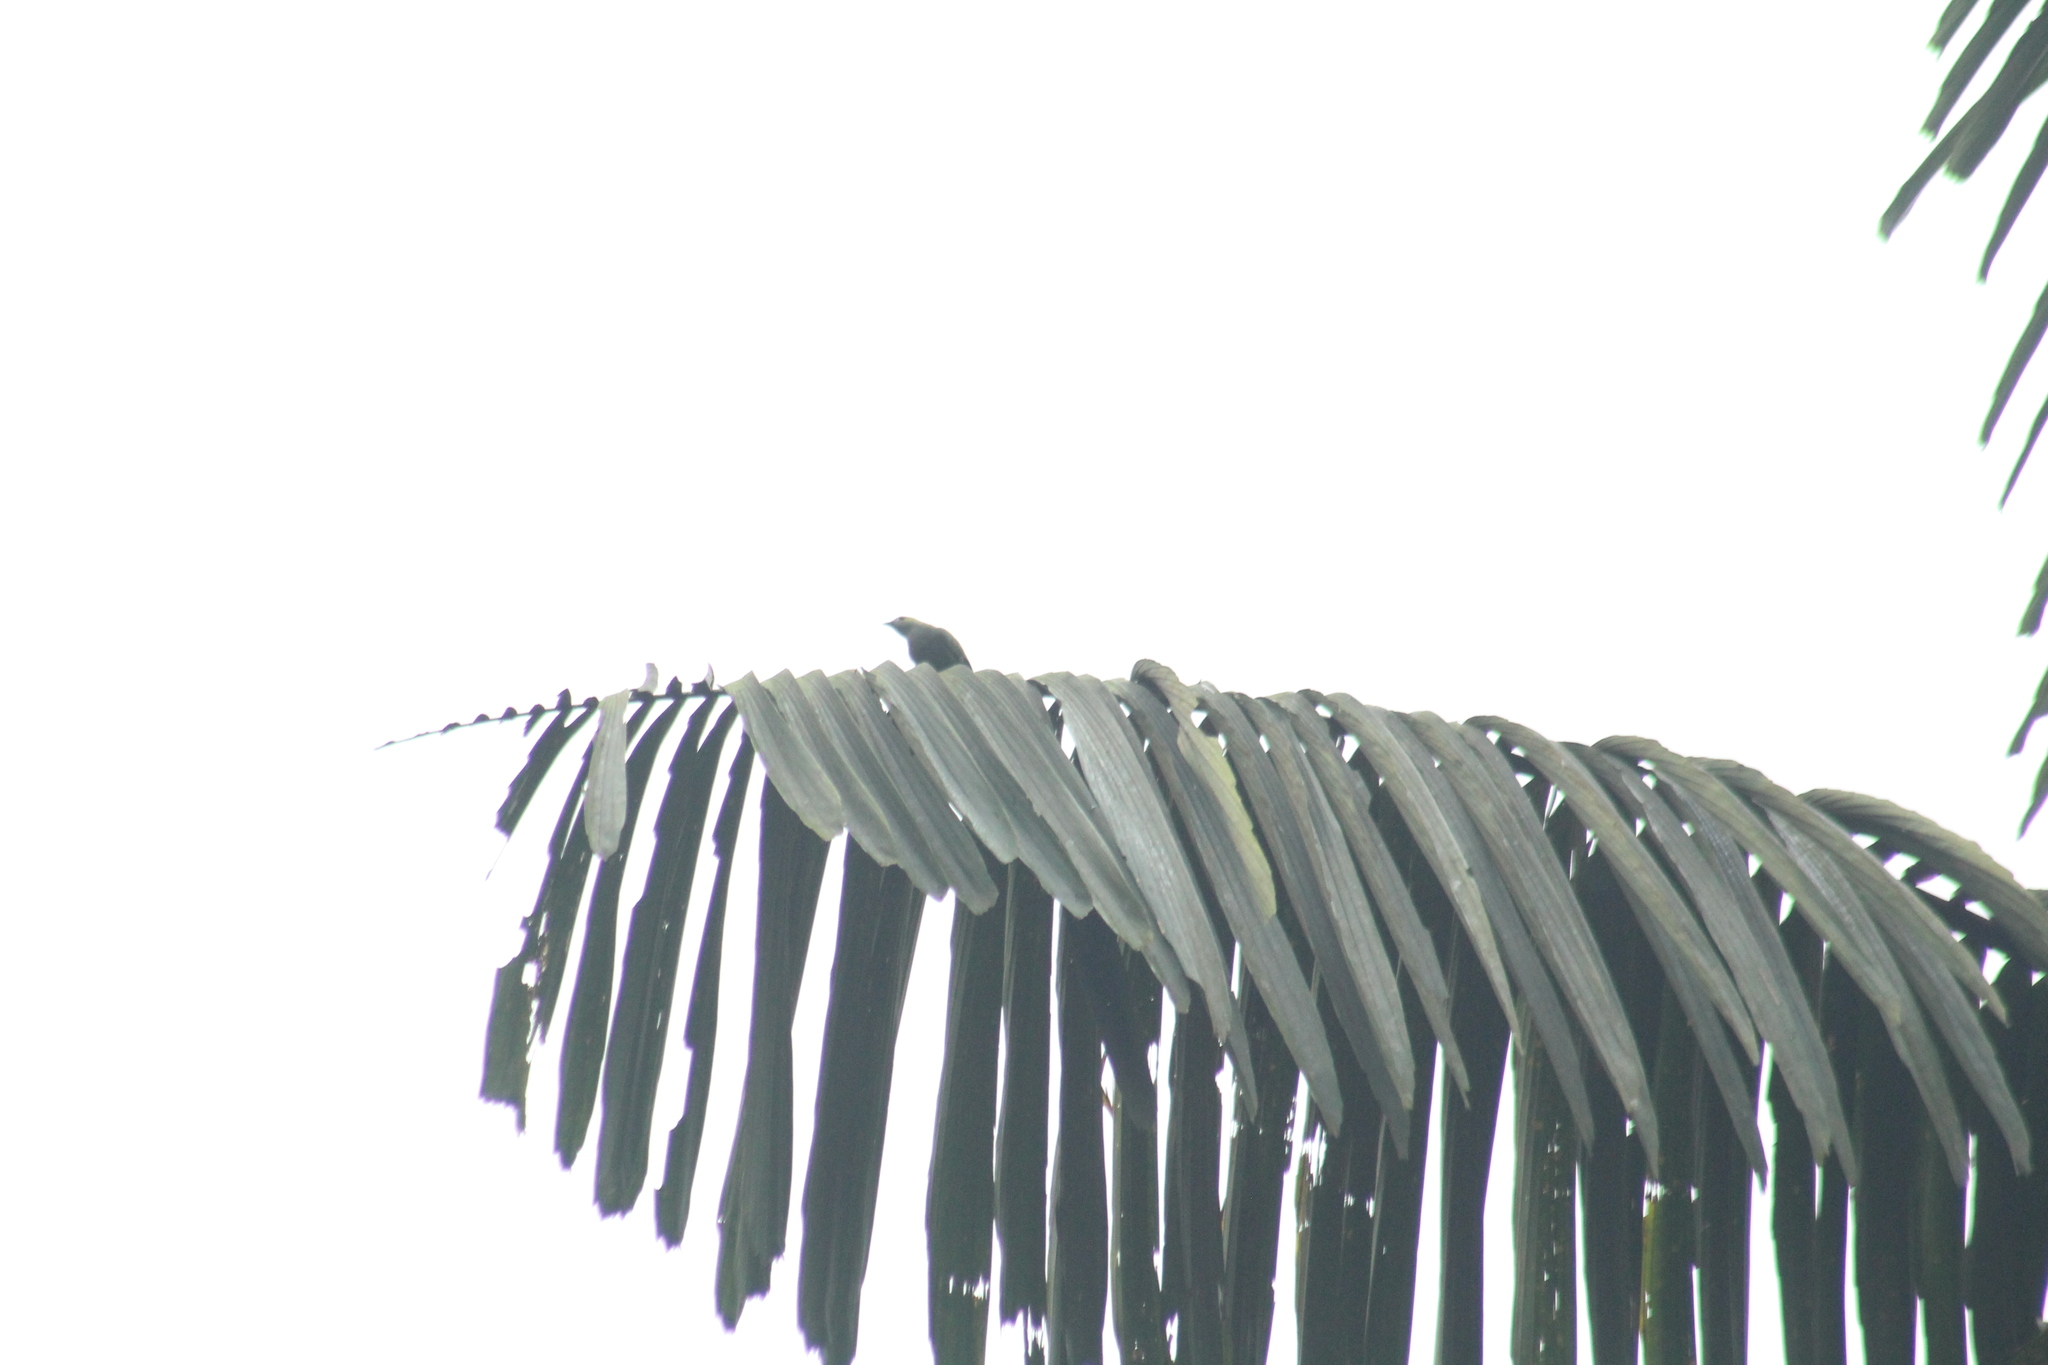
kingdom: Animalia
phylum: Chordata
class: Aves
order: Passeriformes
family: Thraupidae
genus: Thraupis
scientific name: Thraupis palmarum
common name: Palm tanager
